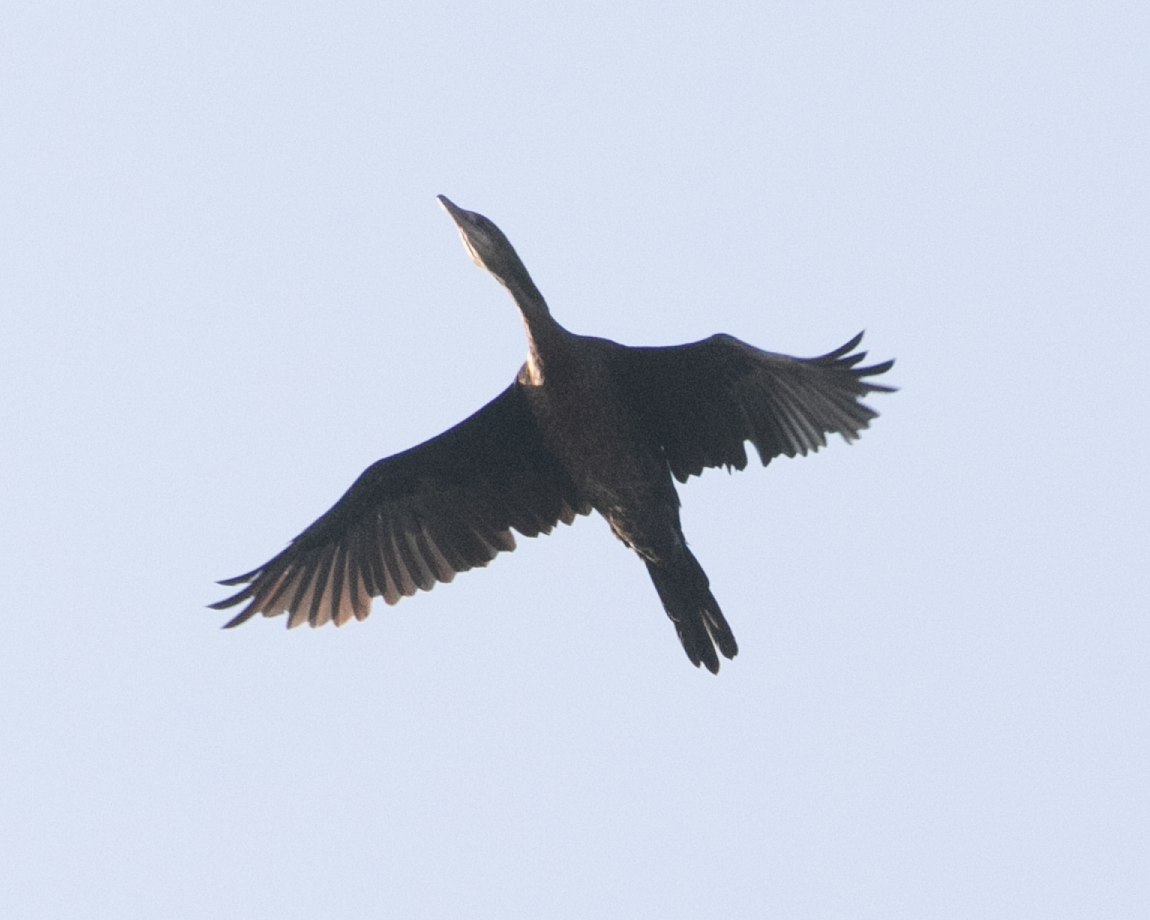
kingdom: Animalia
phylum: Chordata
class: Aves
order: Suliformes
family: Phalacrocoracidae
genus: Microcarbo
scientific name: Microcarbo pygmaeus
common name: Pygmy cormorant
